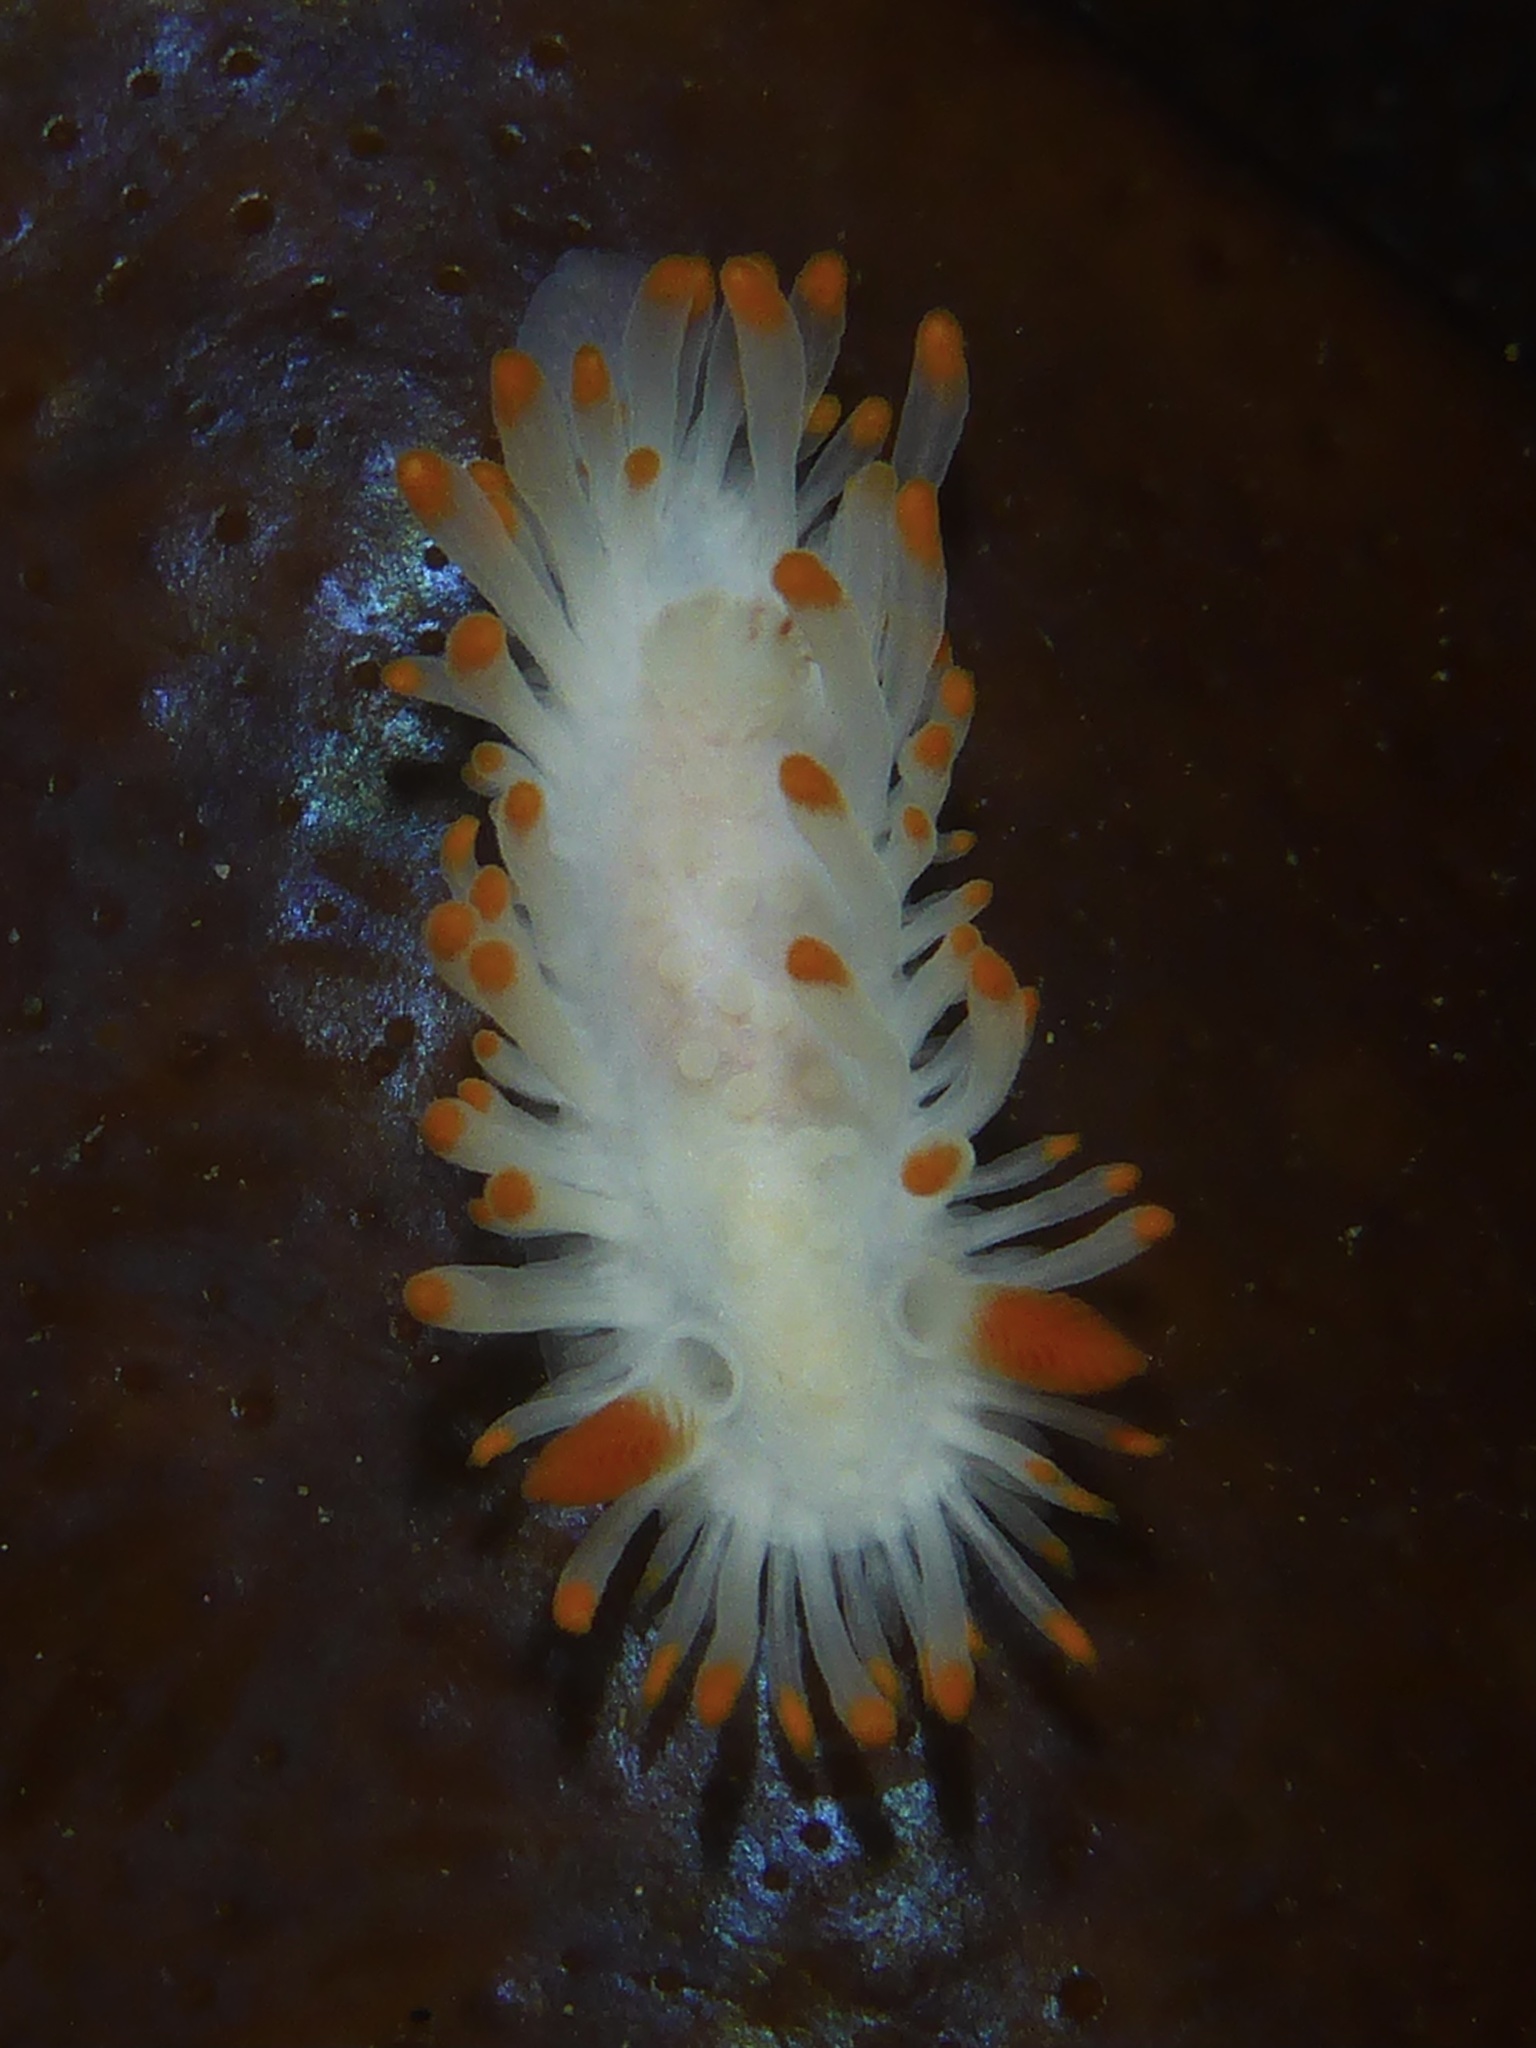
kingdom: Animalia
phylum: Mollusca
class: Gastropoda
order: Nudibranchia
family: Polyceridae
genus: Limacia
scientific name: Limacia cockerelli
